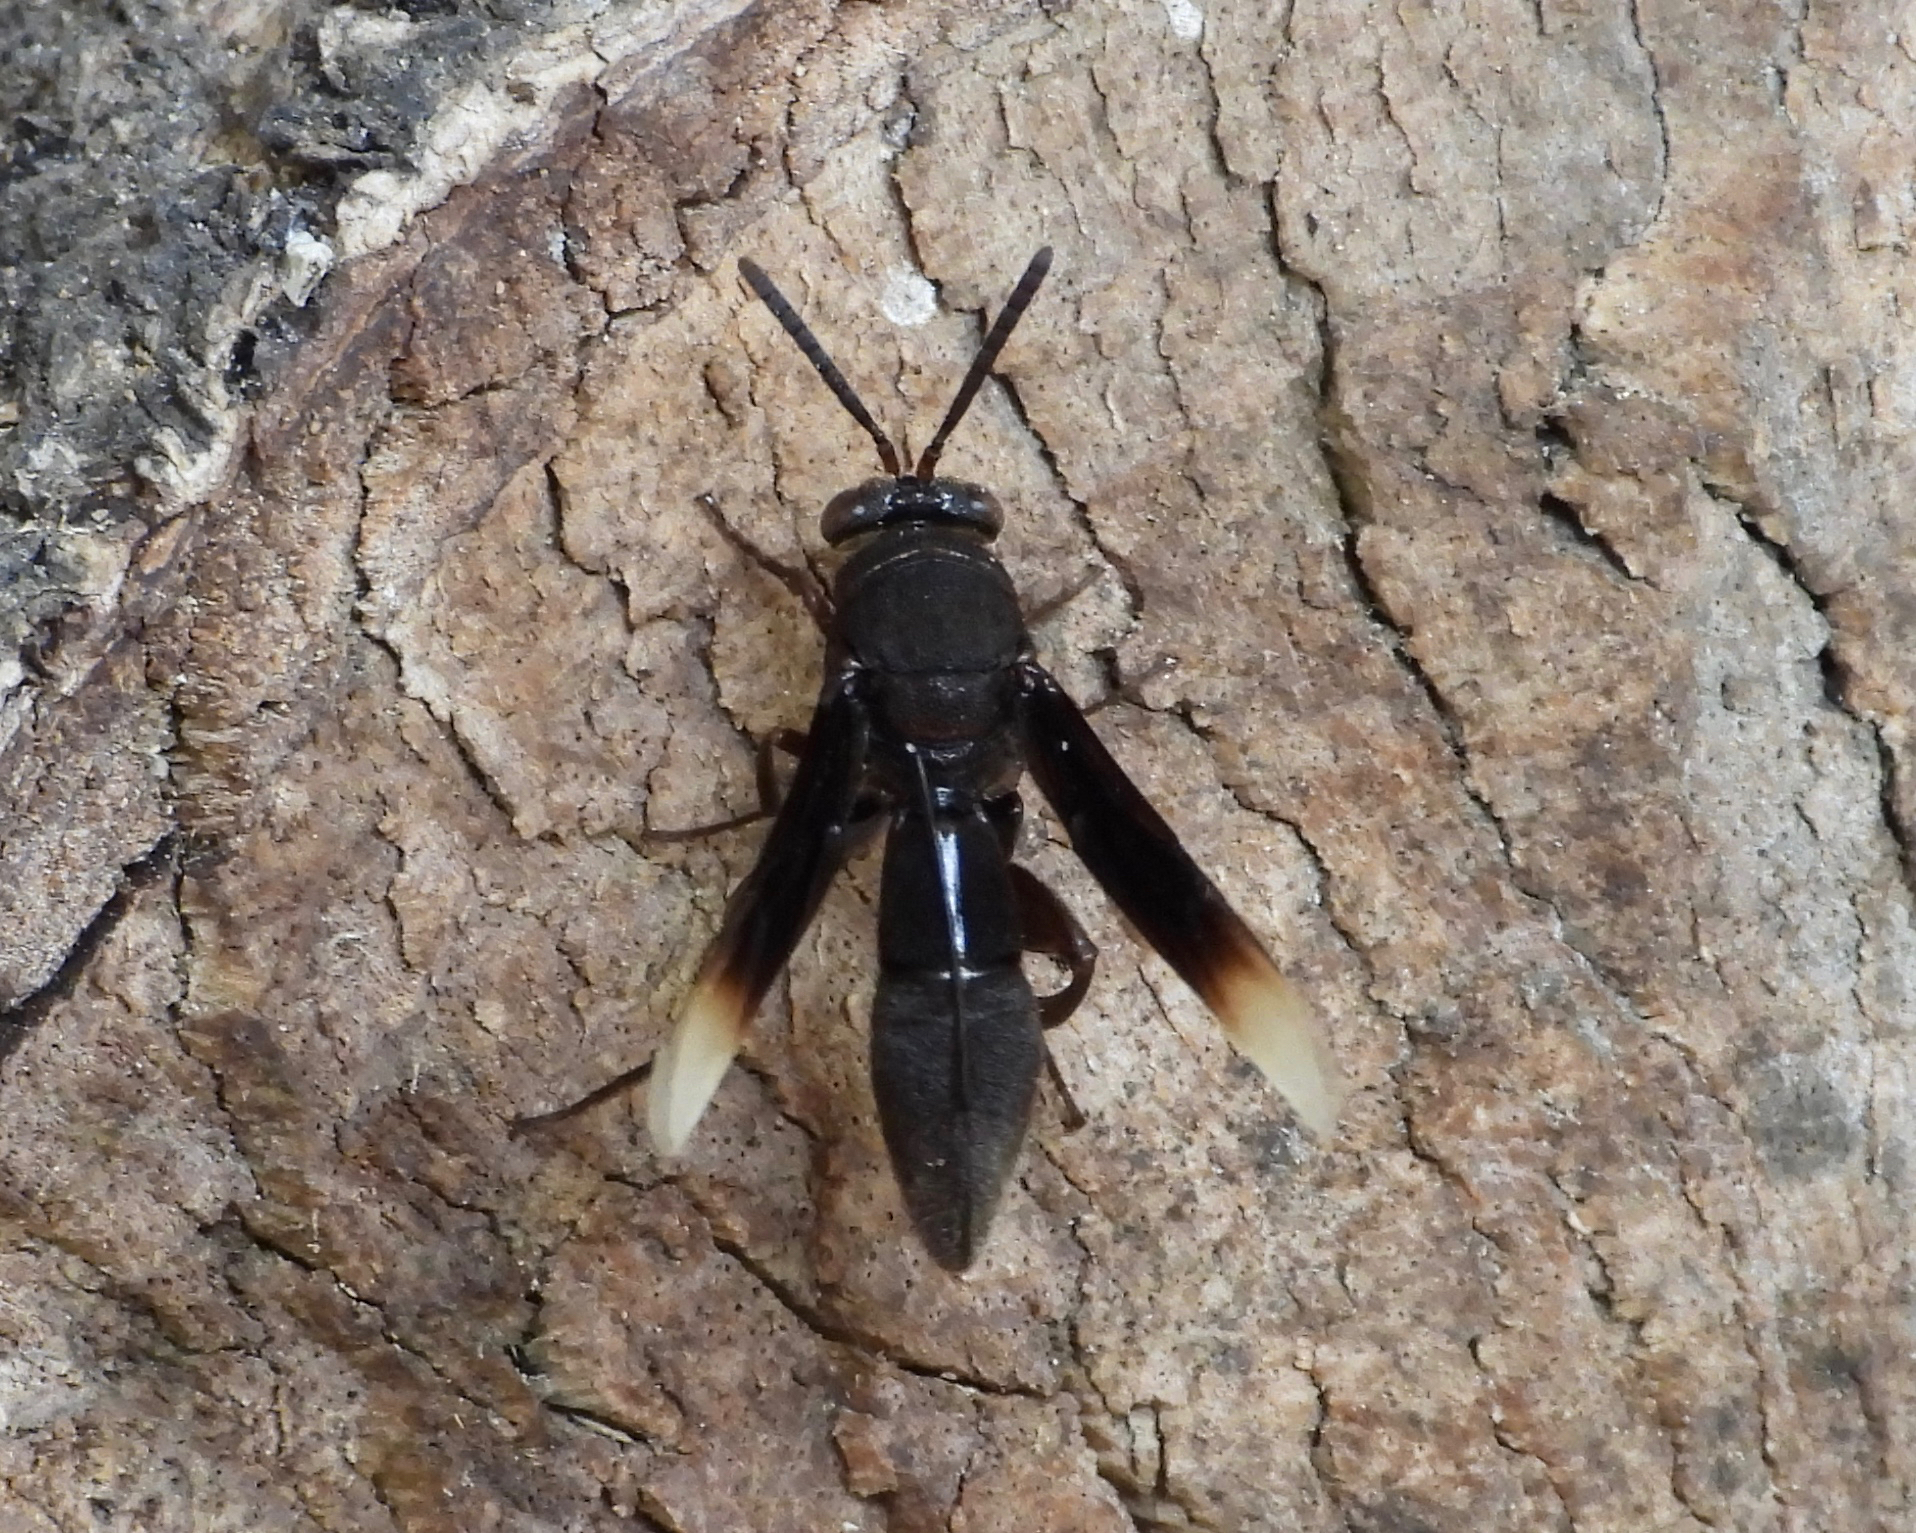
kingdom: Animalia
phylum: Arthropoda
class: Insecta
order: Hymenoptera
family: Leucospidae
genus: Leucospis
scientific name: Leucospis leucotelus
